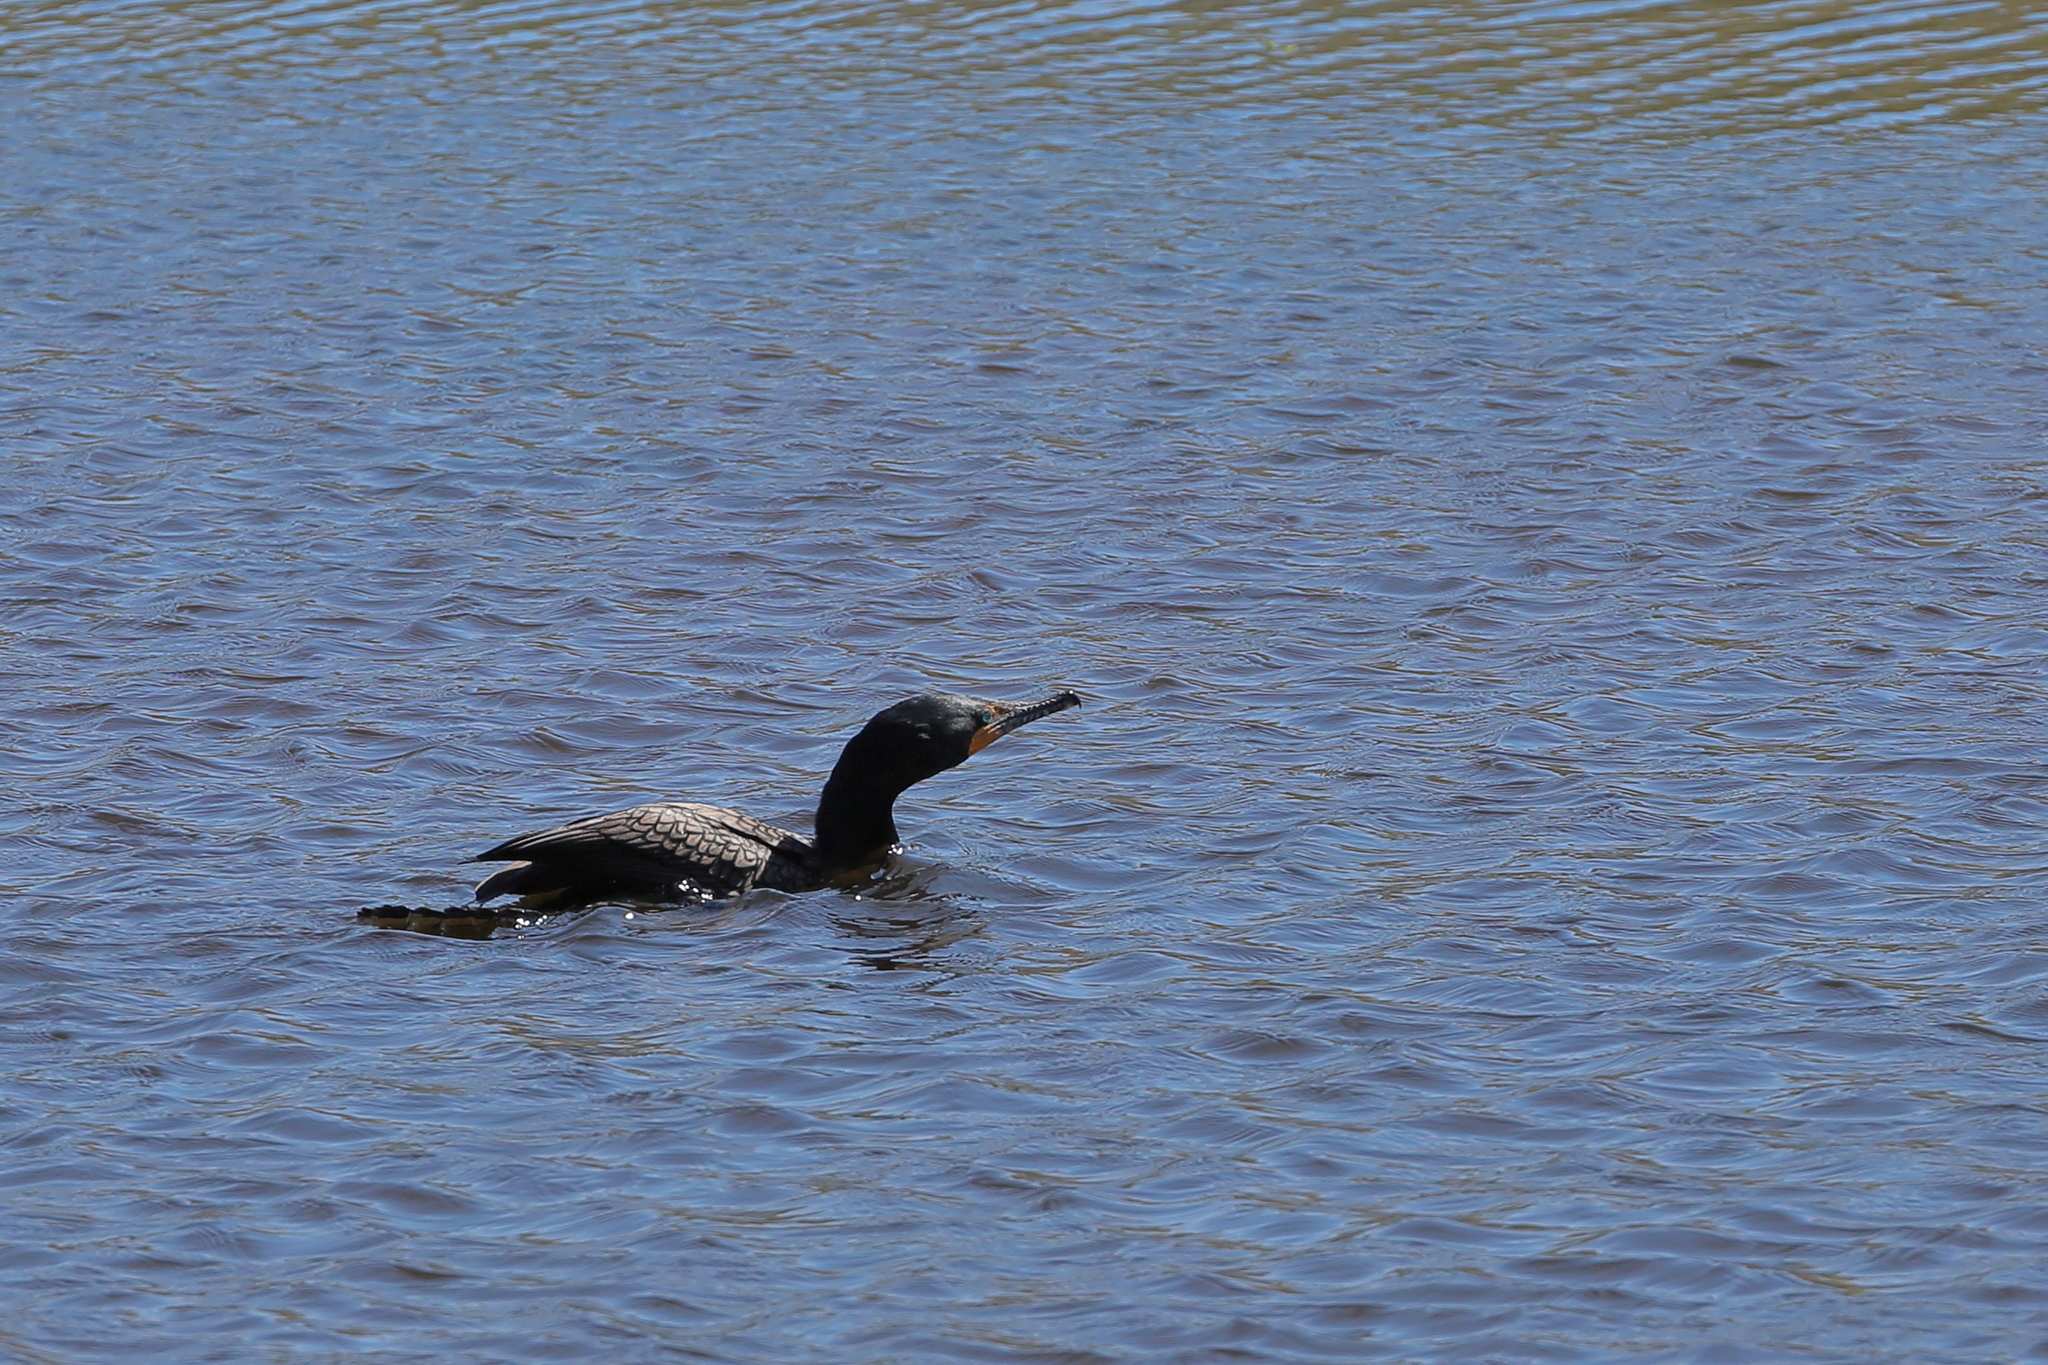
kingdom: Animalia
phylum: Chordata
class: Aves
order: Suliformes
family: Phalacrocoracidae
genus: Phalacrocorax
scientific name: Phalacrocorax auritus
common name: Double-crested cormorant
